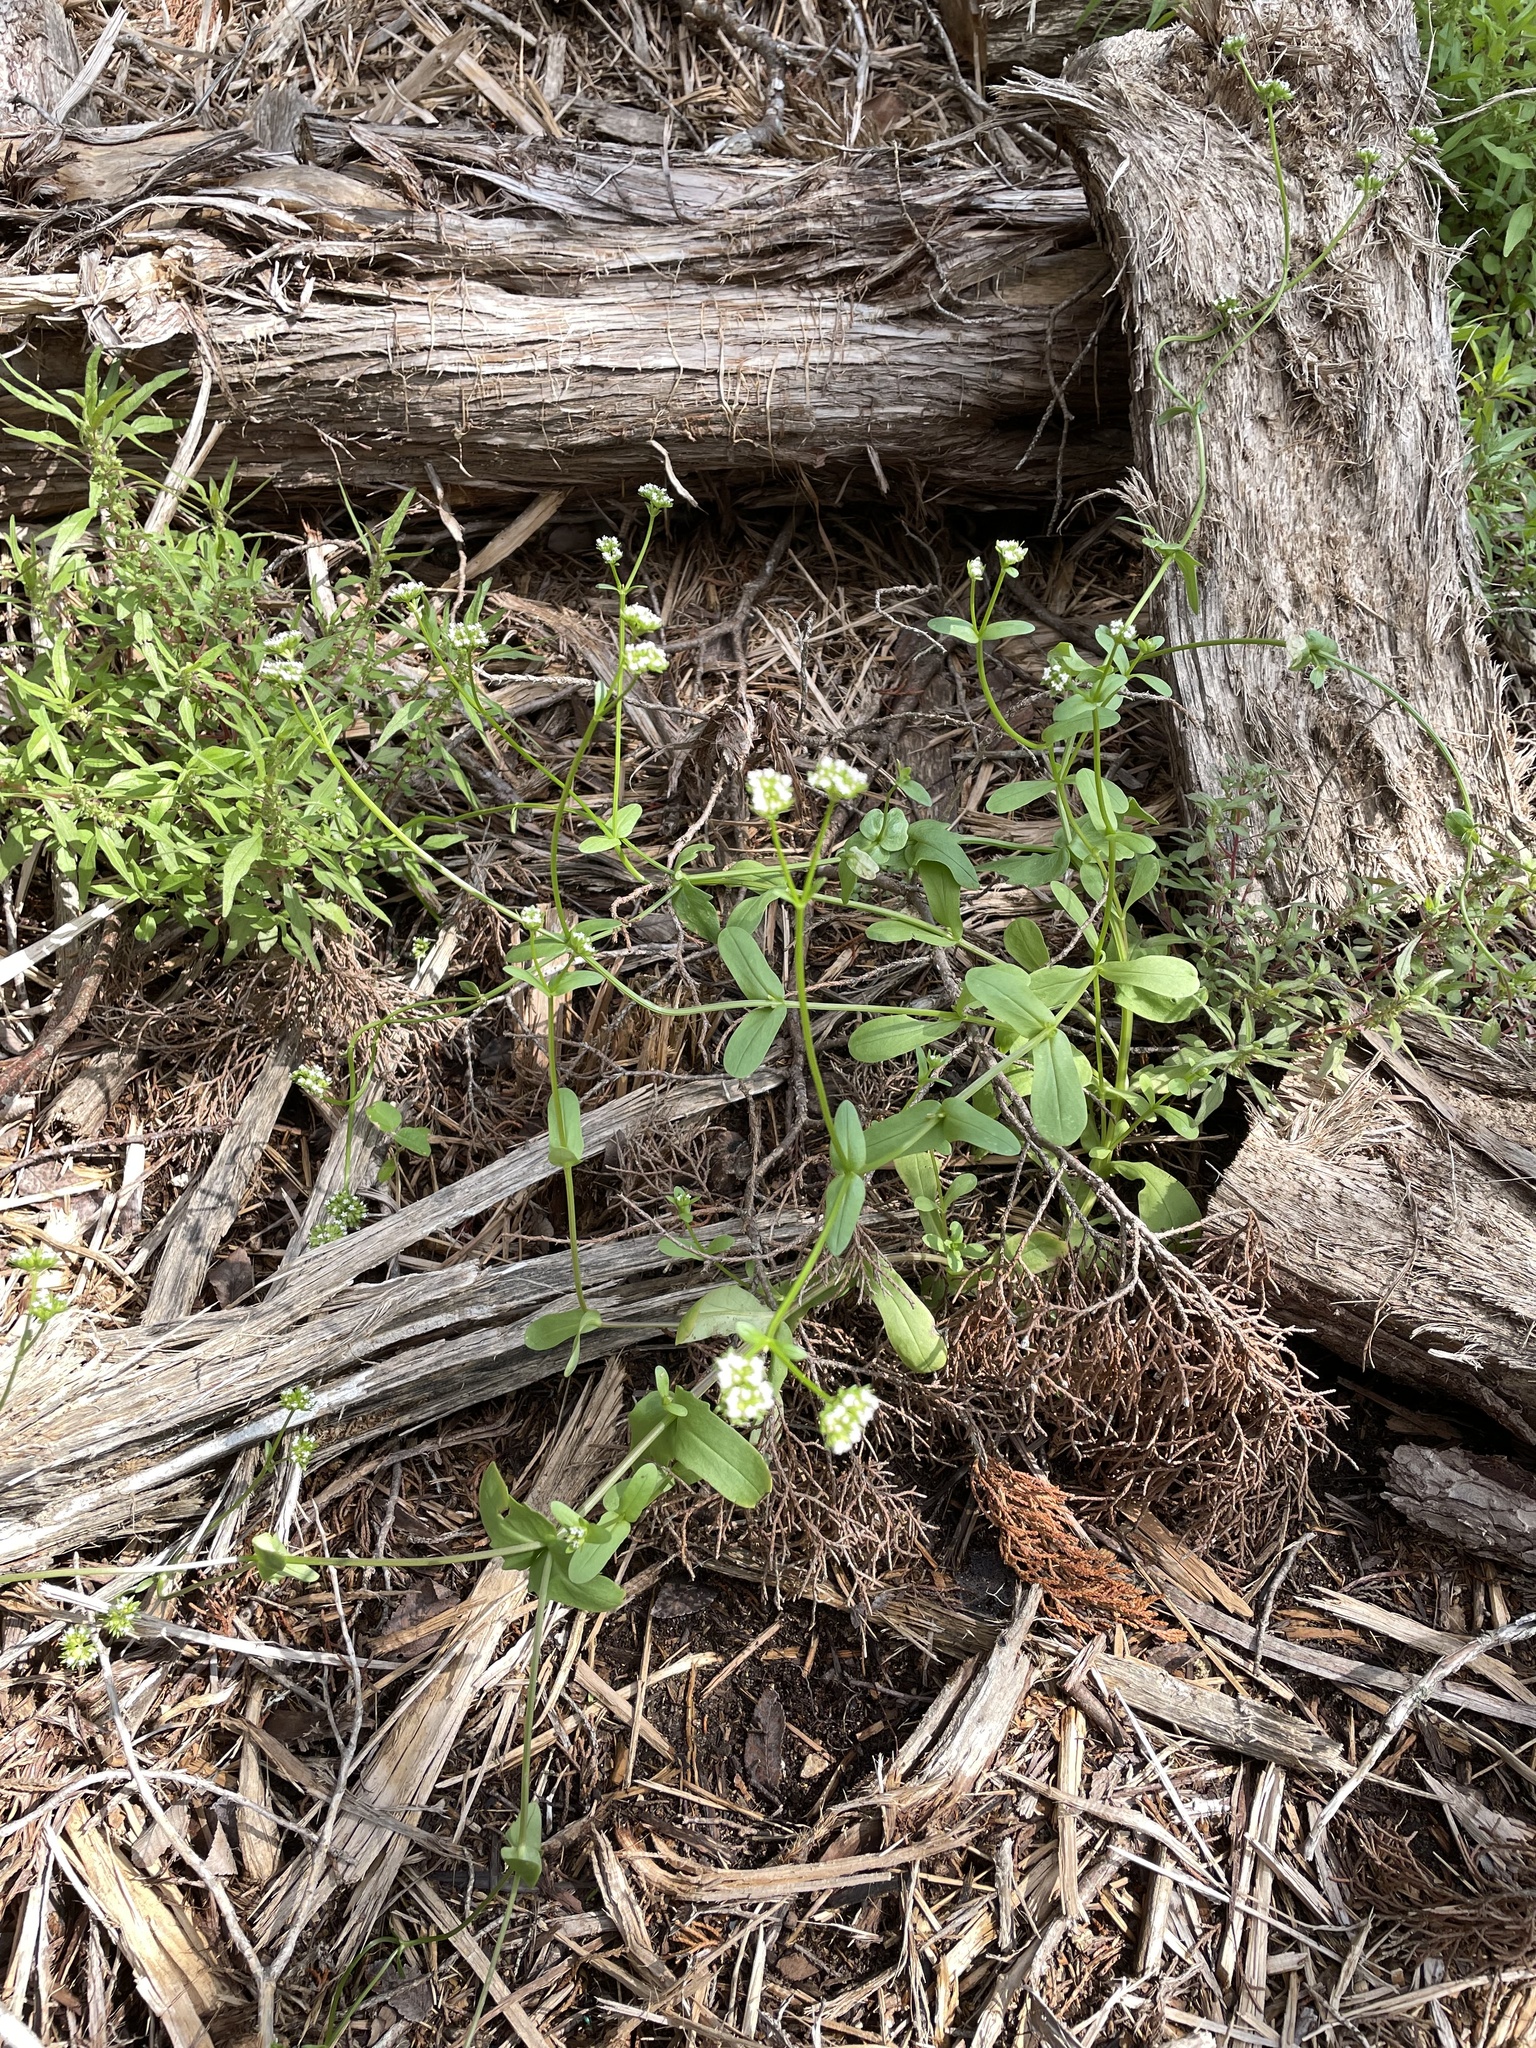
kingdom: Plantae
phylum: Tracheophyta
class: Magnoliopsida
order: Dipsacales
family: Caprifoliaceae
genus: Valerianella
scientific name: Valerianella radiata
